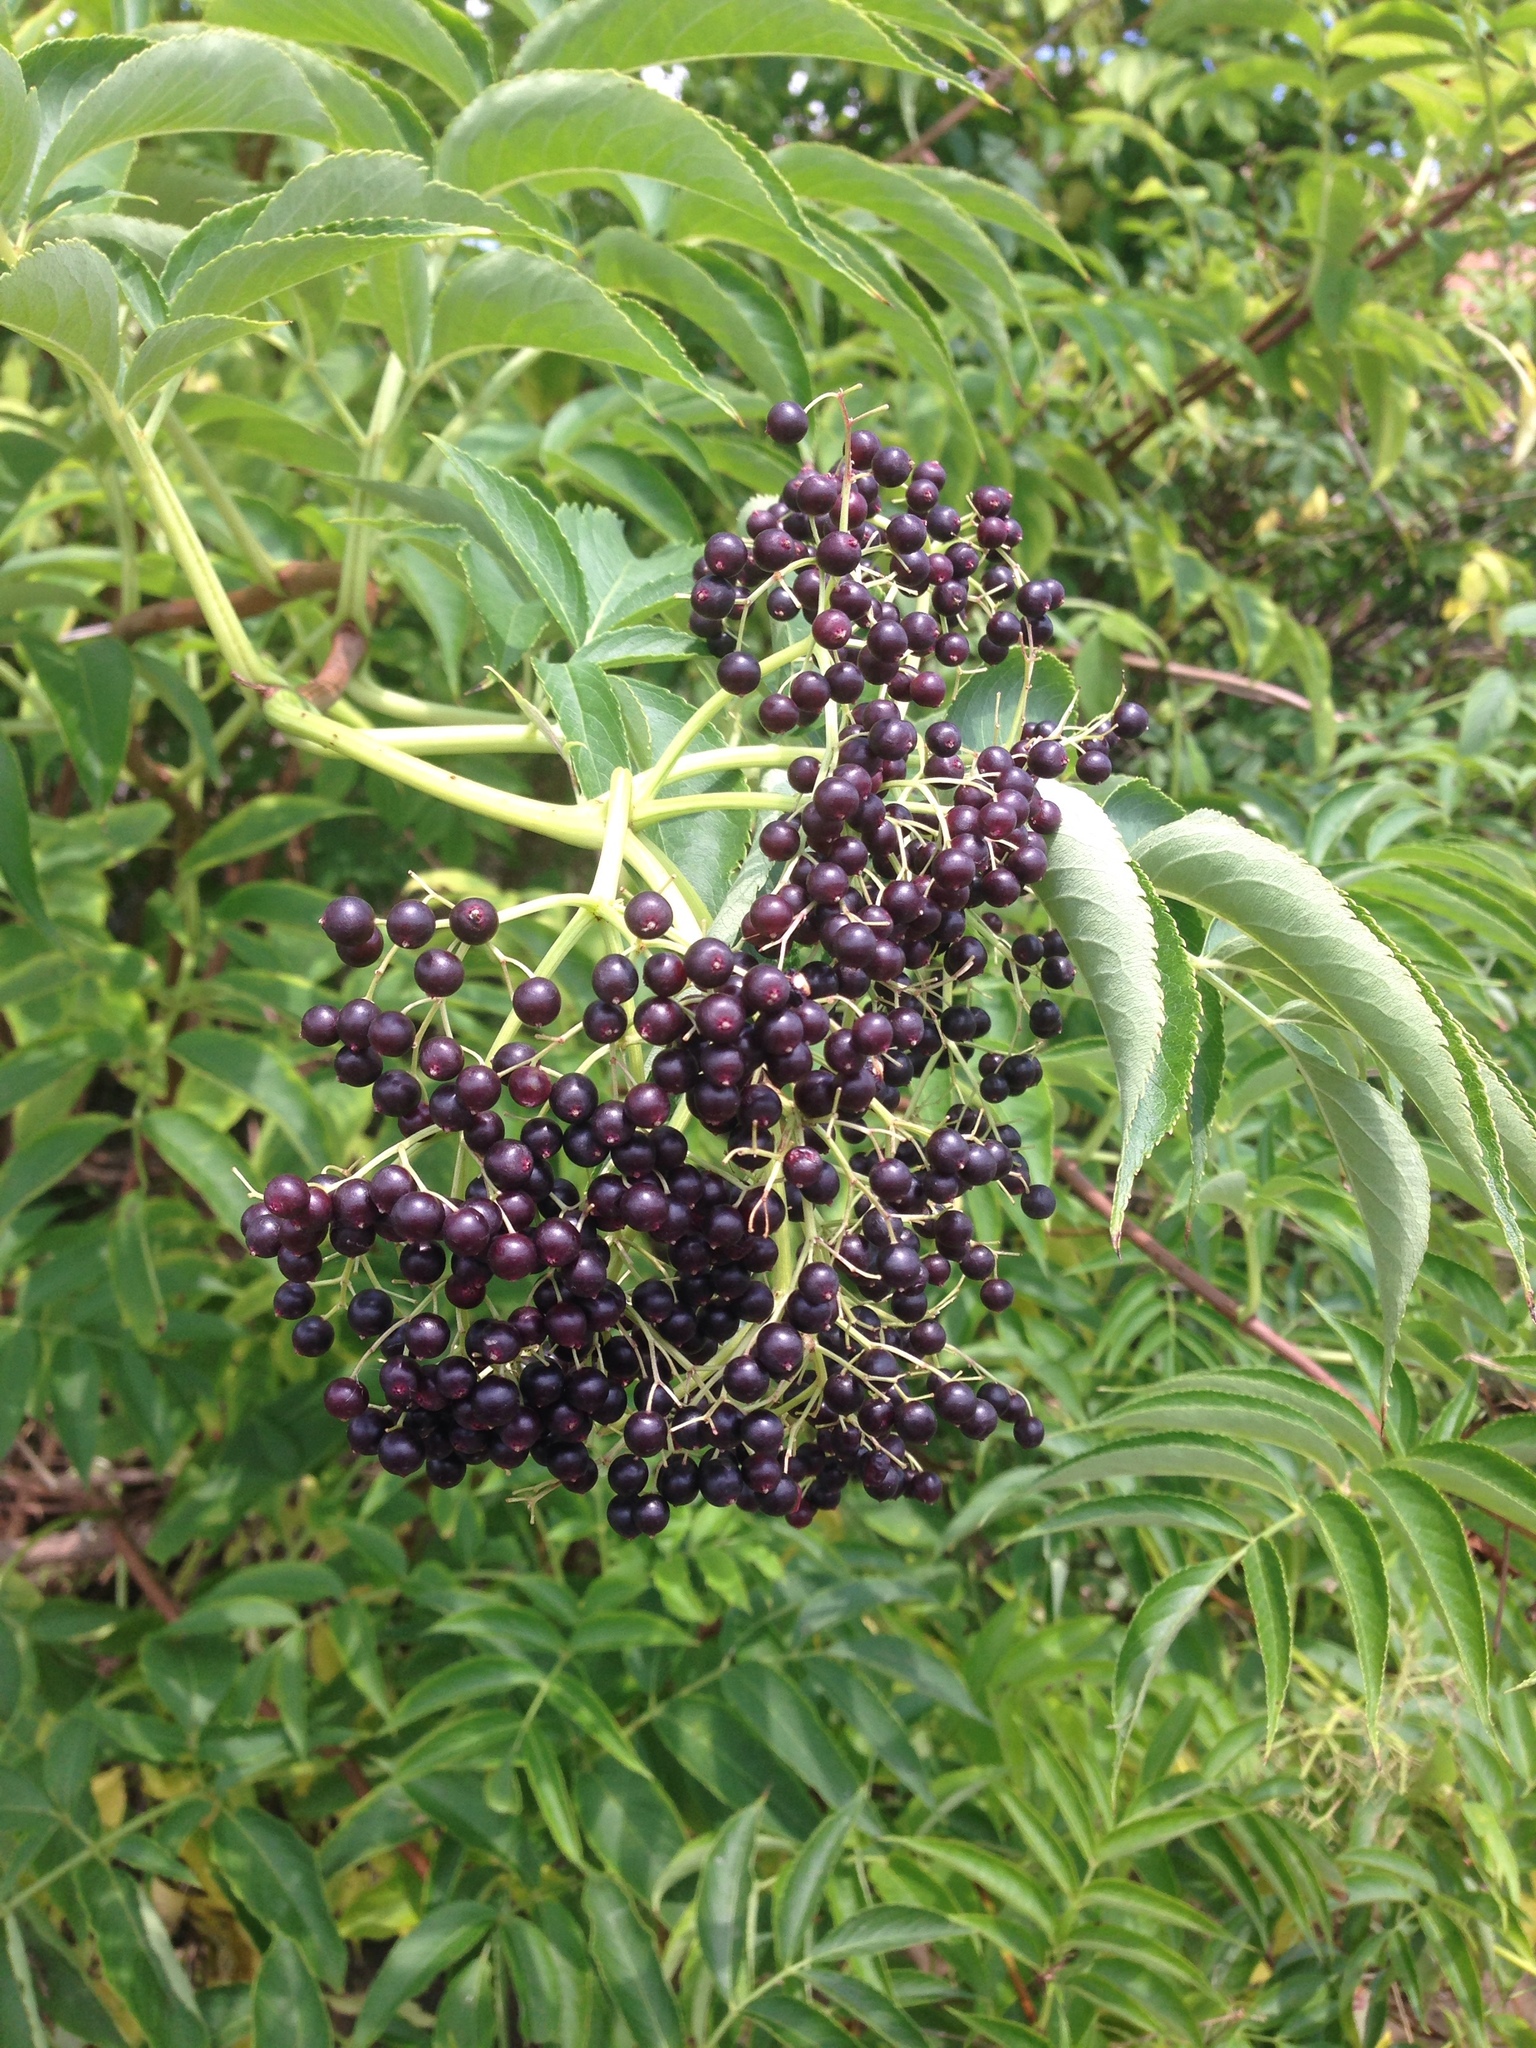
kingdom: Plantae
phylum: Tracheophyta
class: Magnoliopsida
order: Dipsacales
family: Viburnaceae
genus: Sambucus
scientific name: Sambucus canadensis
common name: American elder
